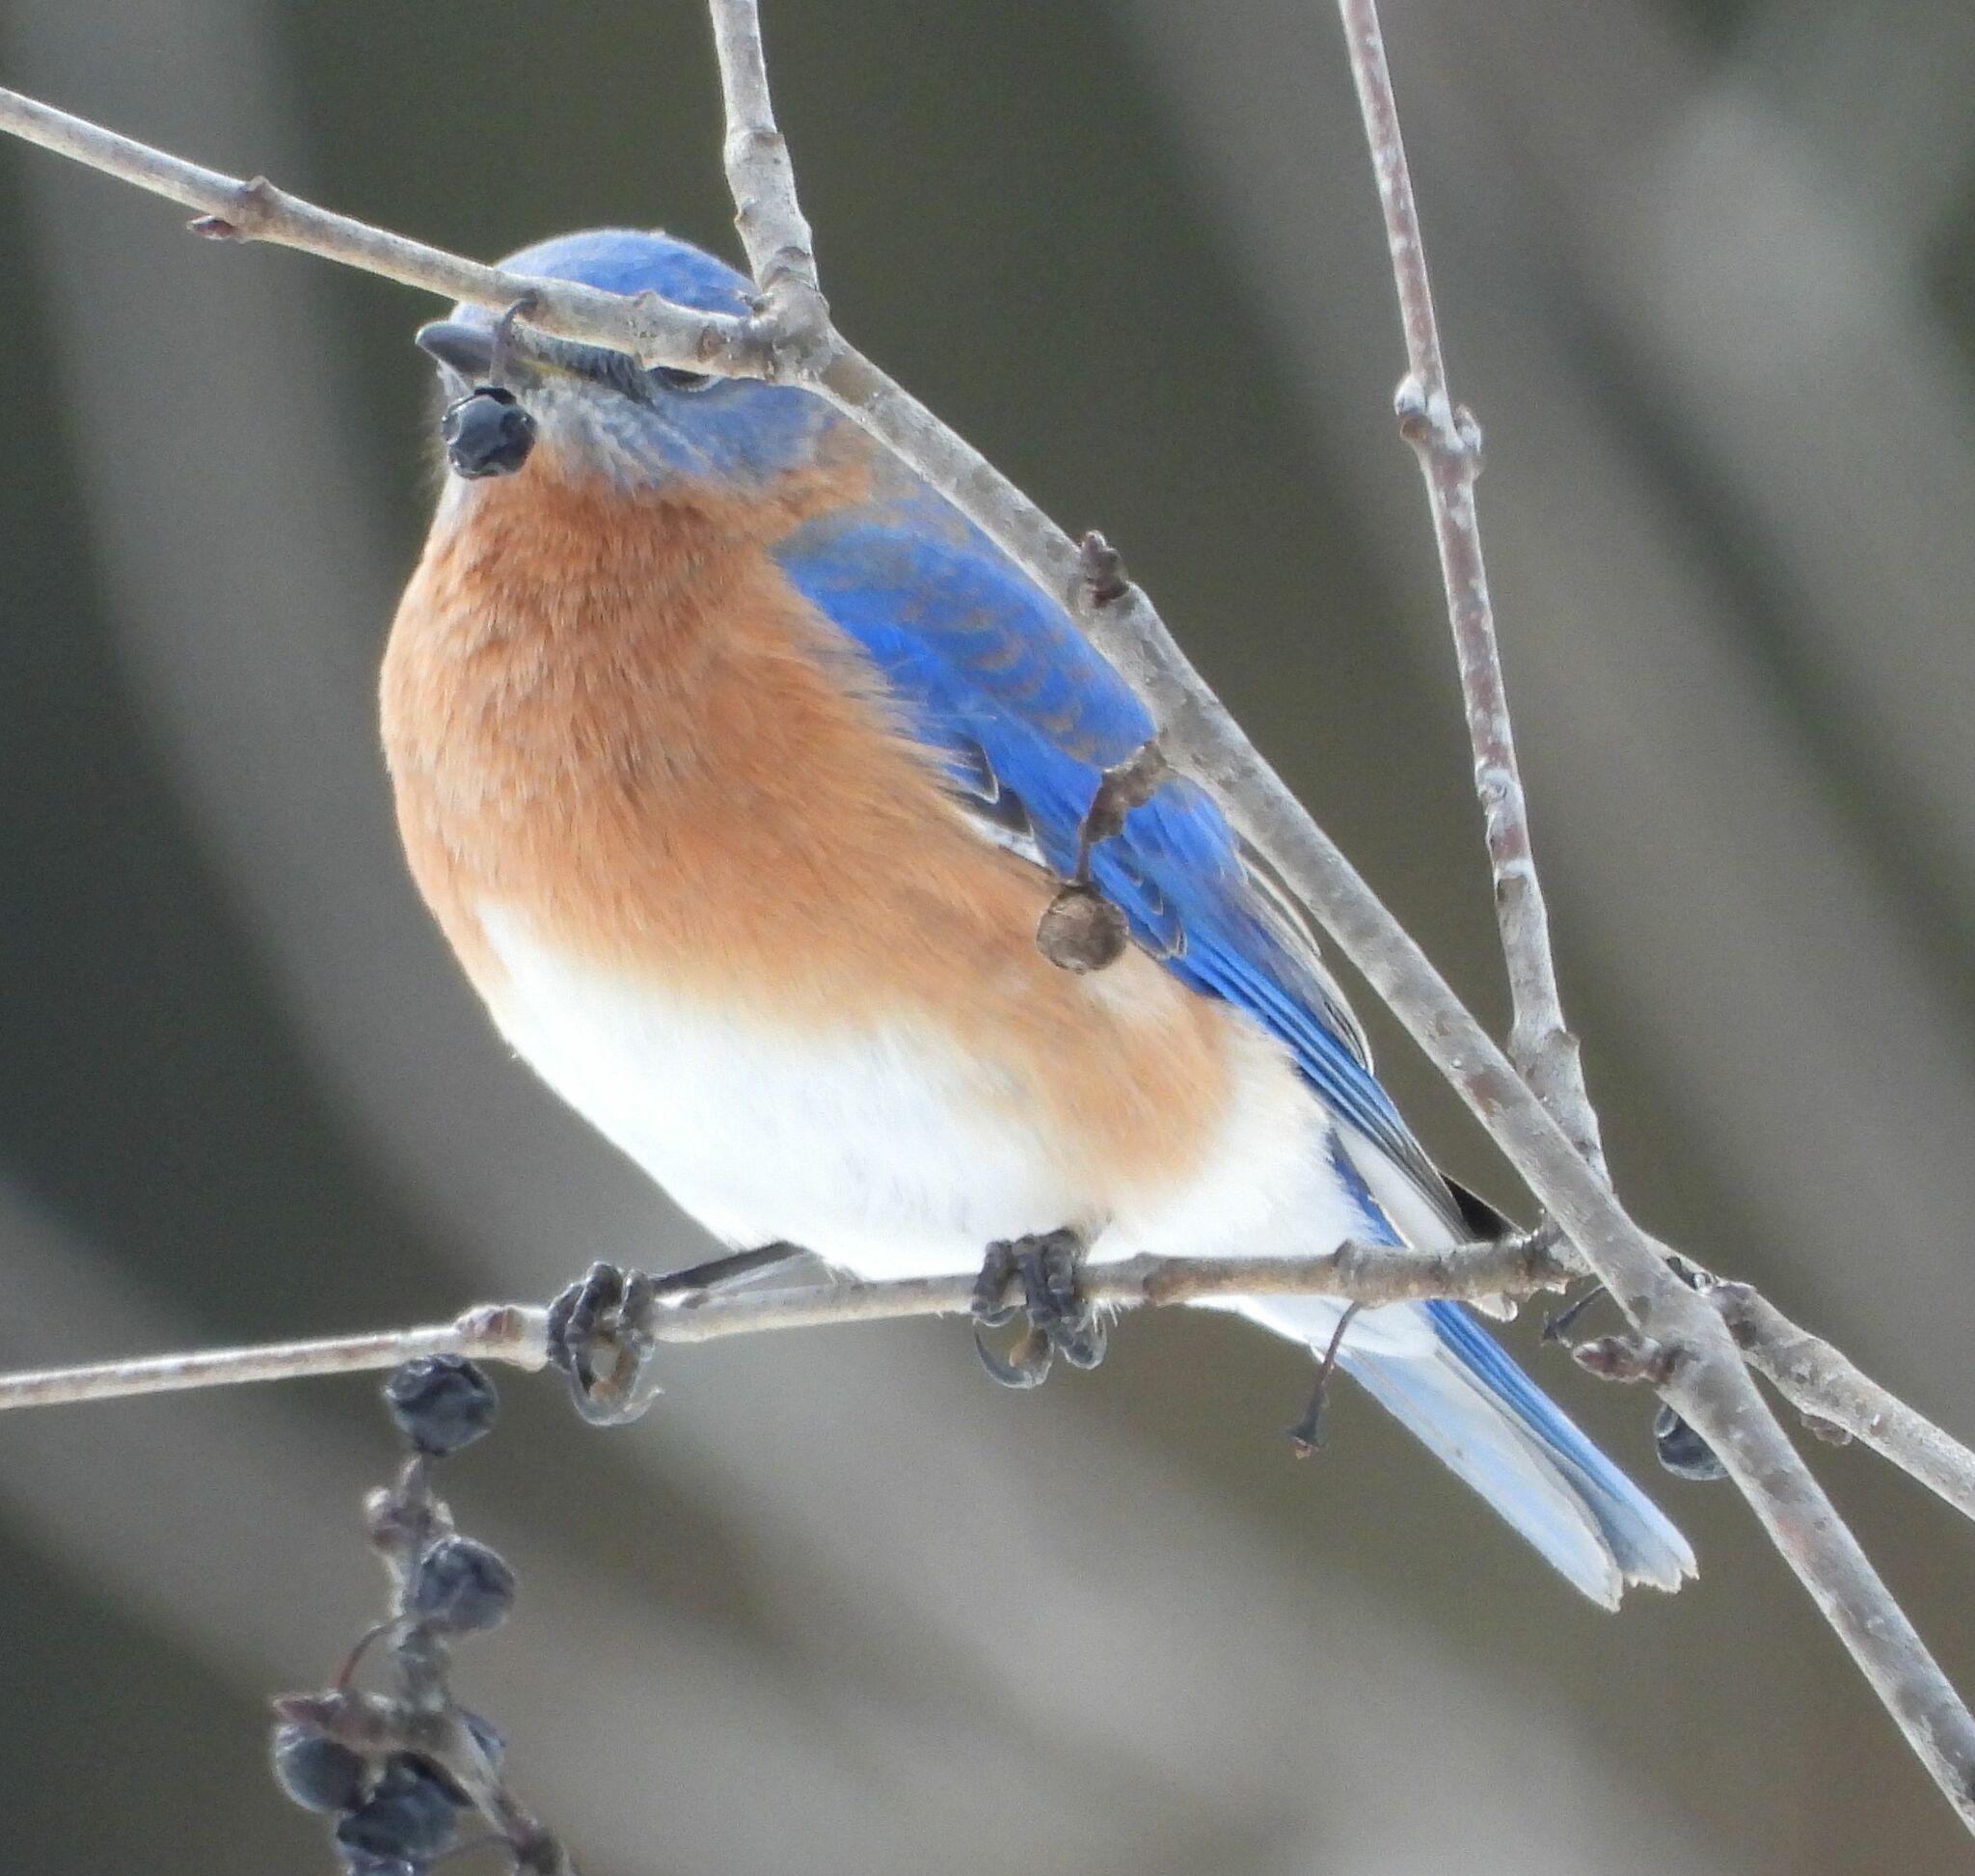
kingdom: Animalia
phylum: Chordata
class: Aves
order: Passeriformes
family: Turdidae
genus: Sialia
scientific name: Sialia sialis
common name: Eastern bluebird
